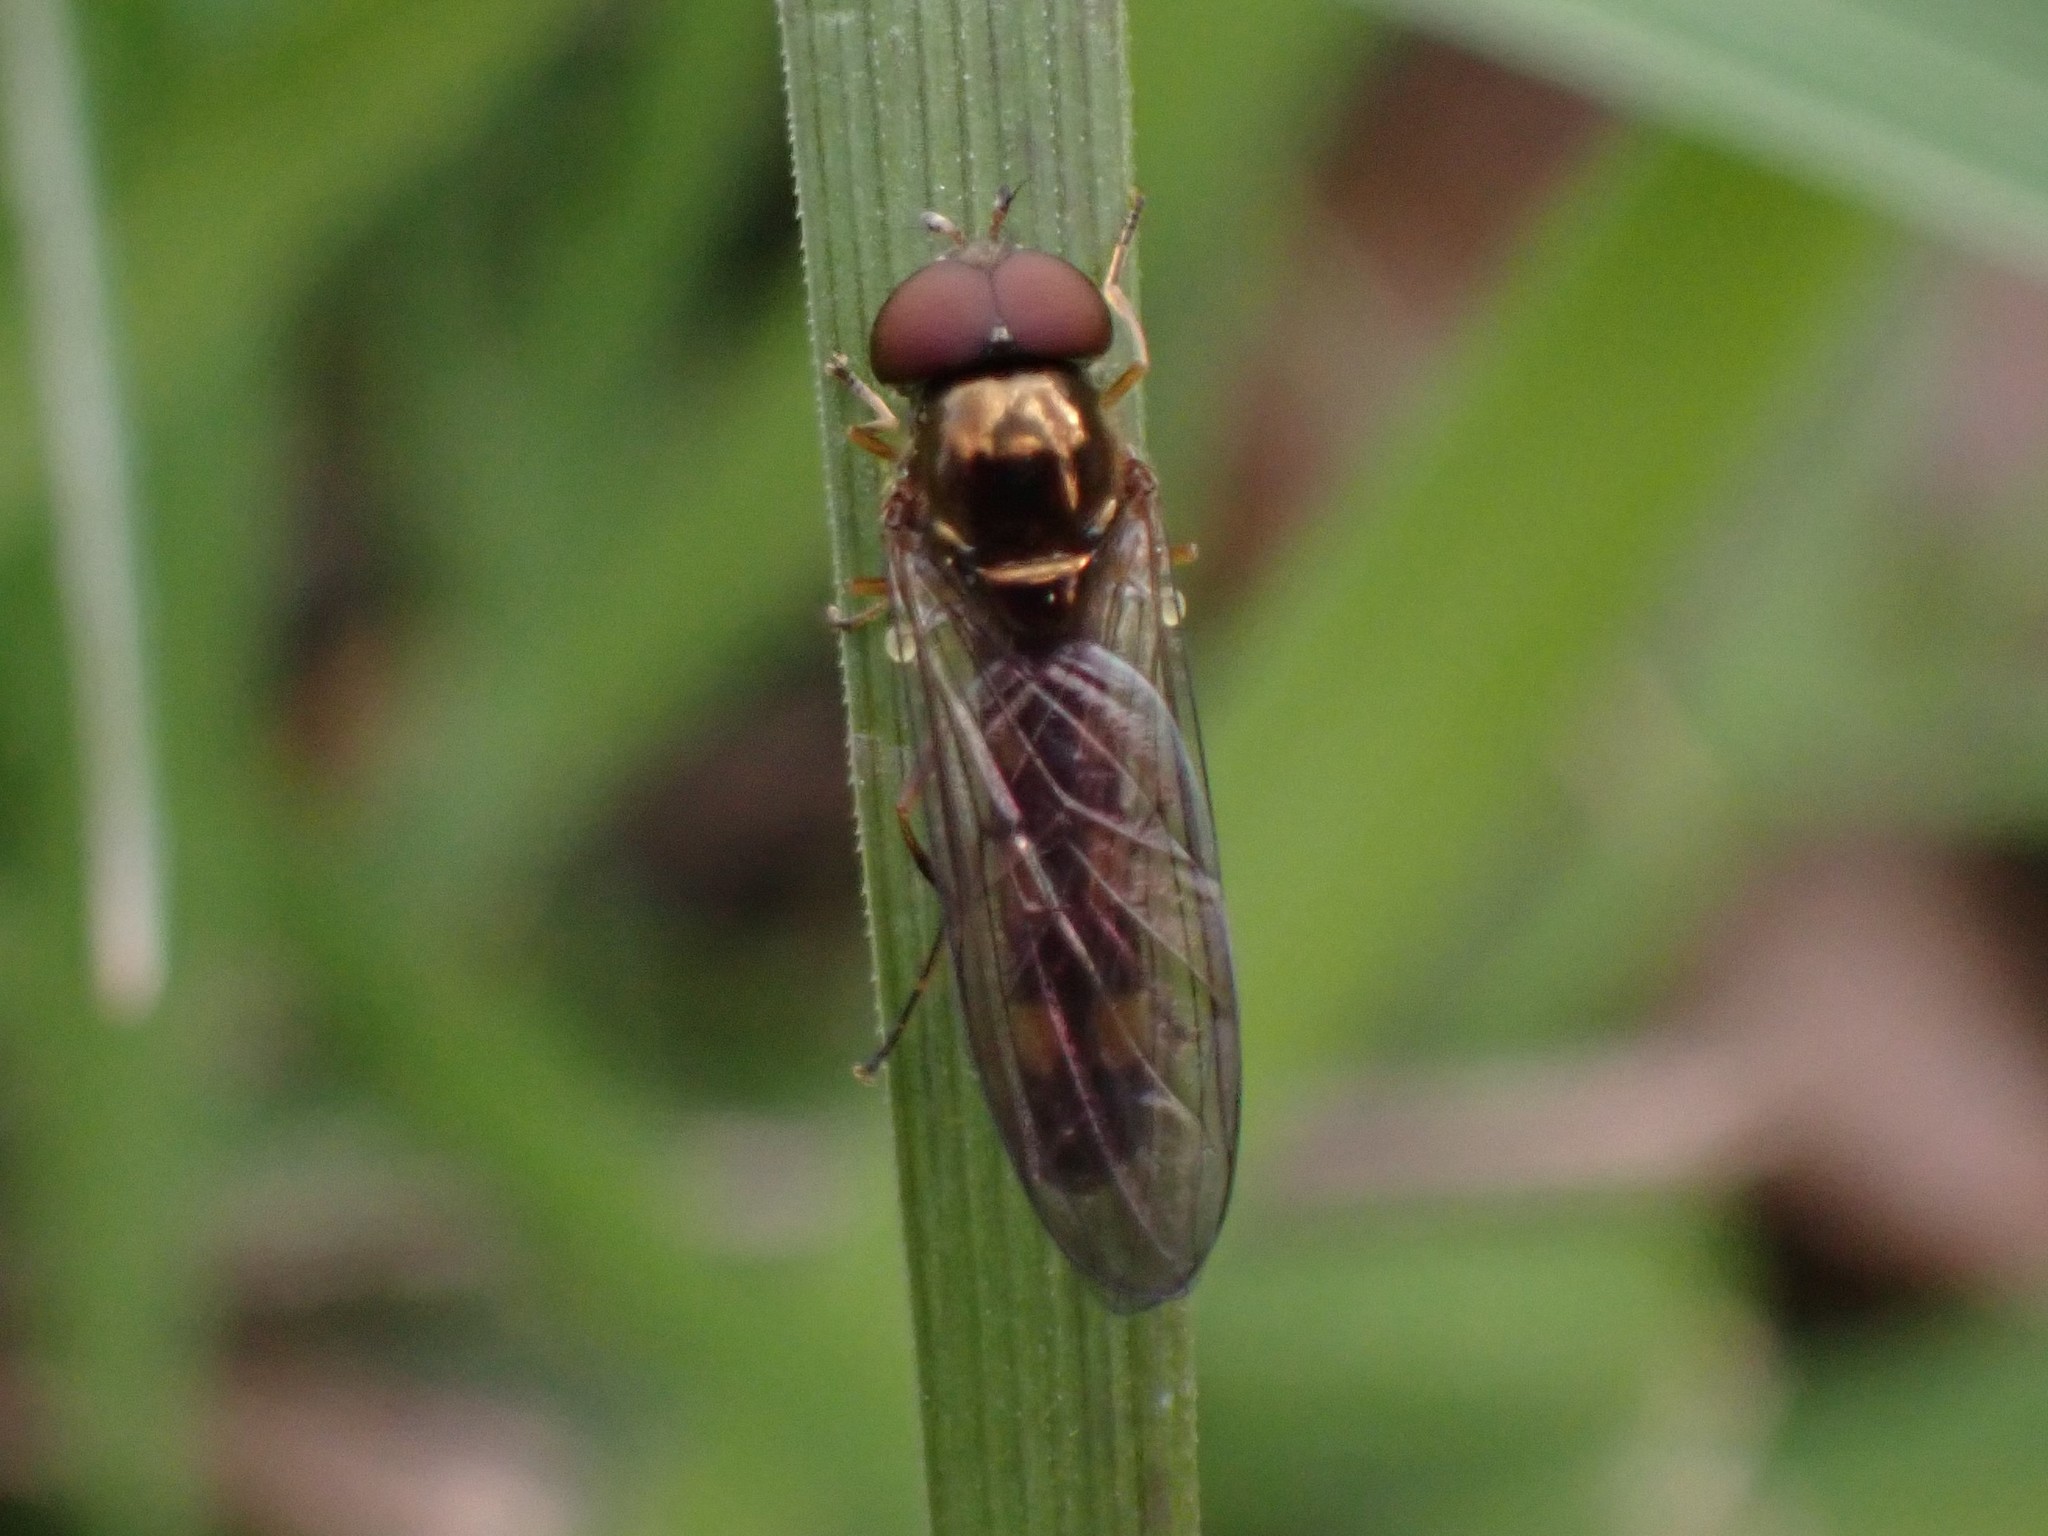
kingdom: Animalia
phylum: Arthropoda
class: Insecta
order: Diptera
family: Syrphidae
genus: Melanostoma
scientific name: Melanostoma mellina
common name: Hover fly
